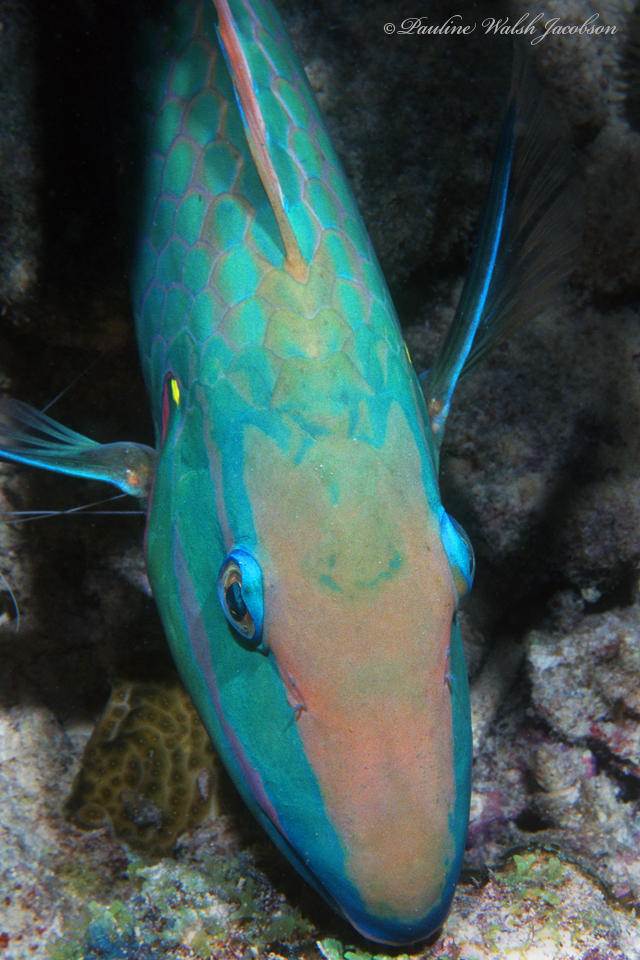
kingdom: Animalia
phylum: Chordata
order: Perciformes
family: Scaridae
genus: Sparisoma
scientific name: Sparisoma viride
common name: Stoplight parrotfish
